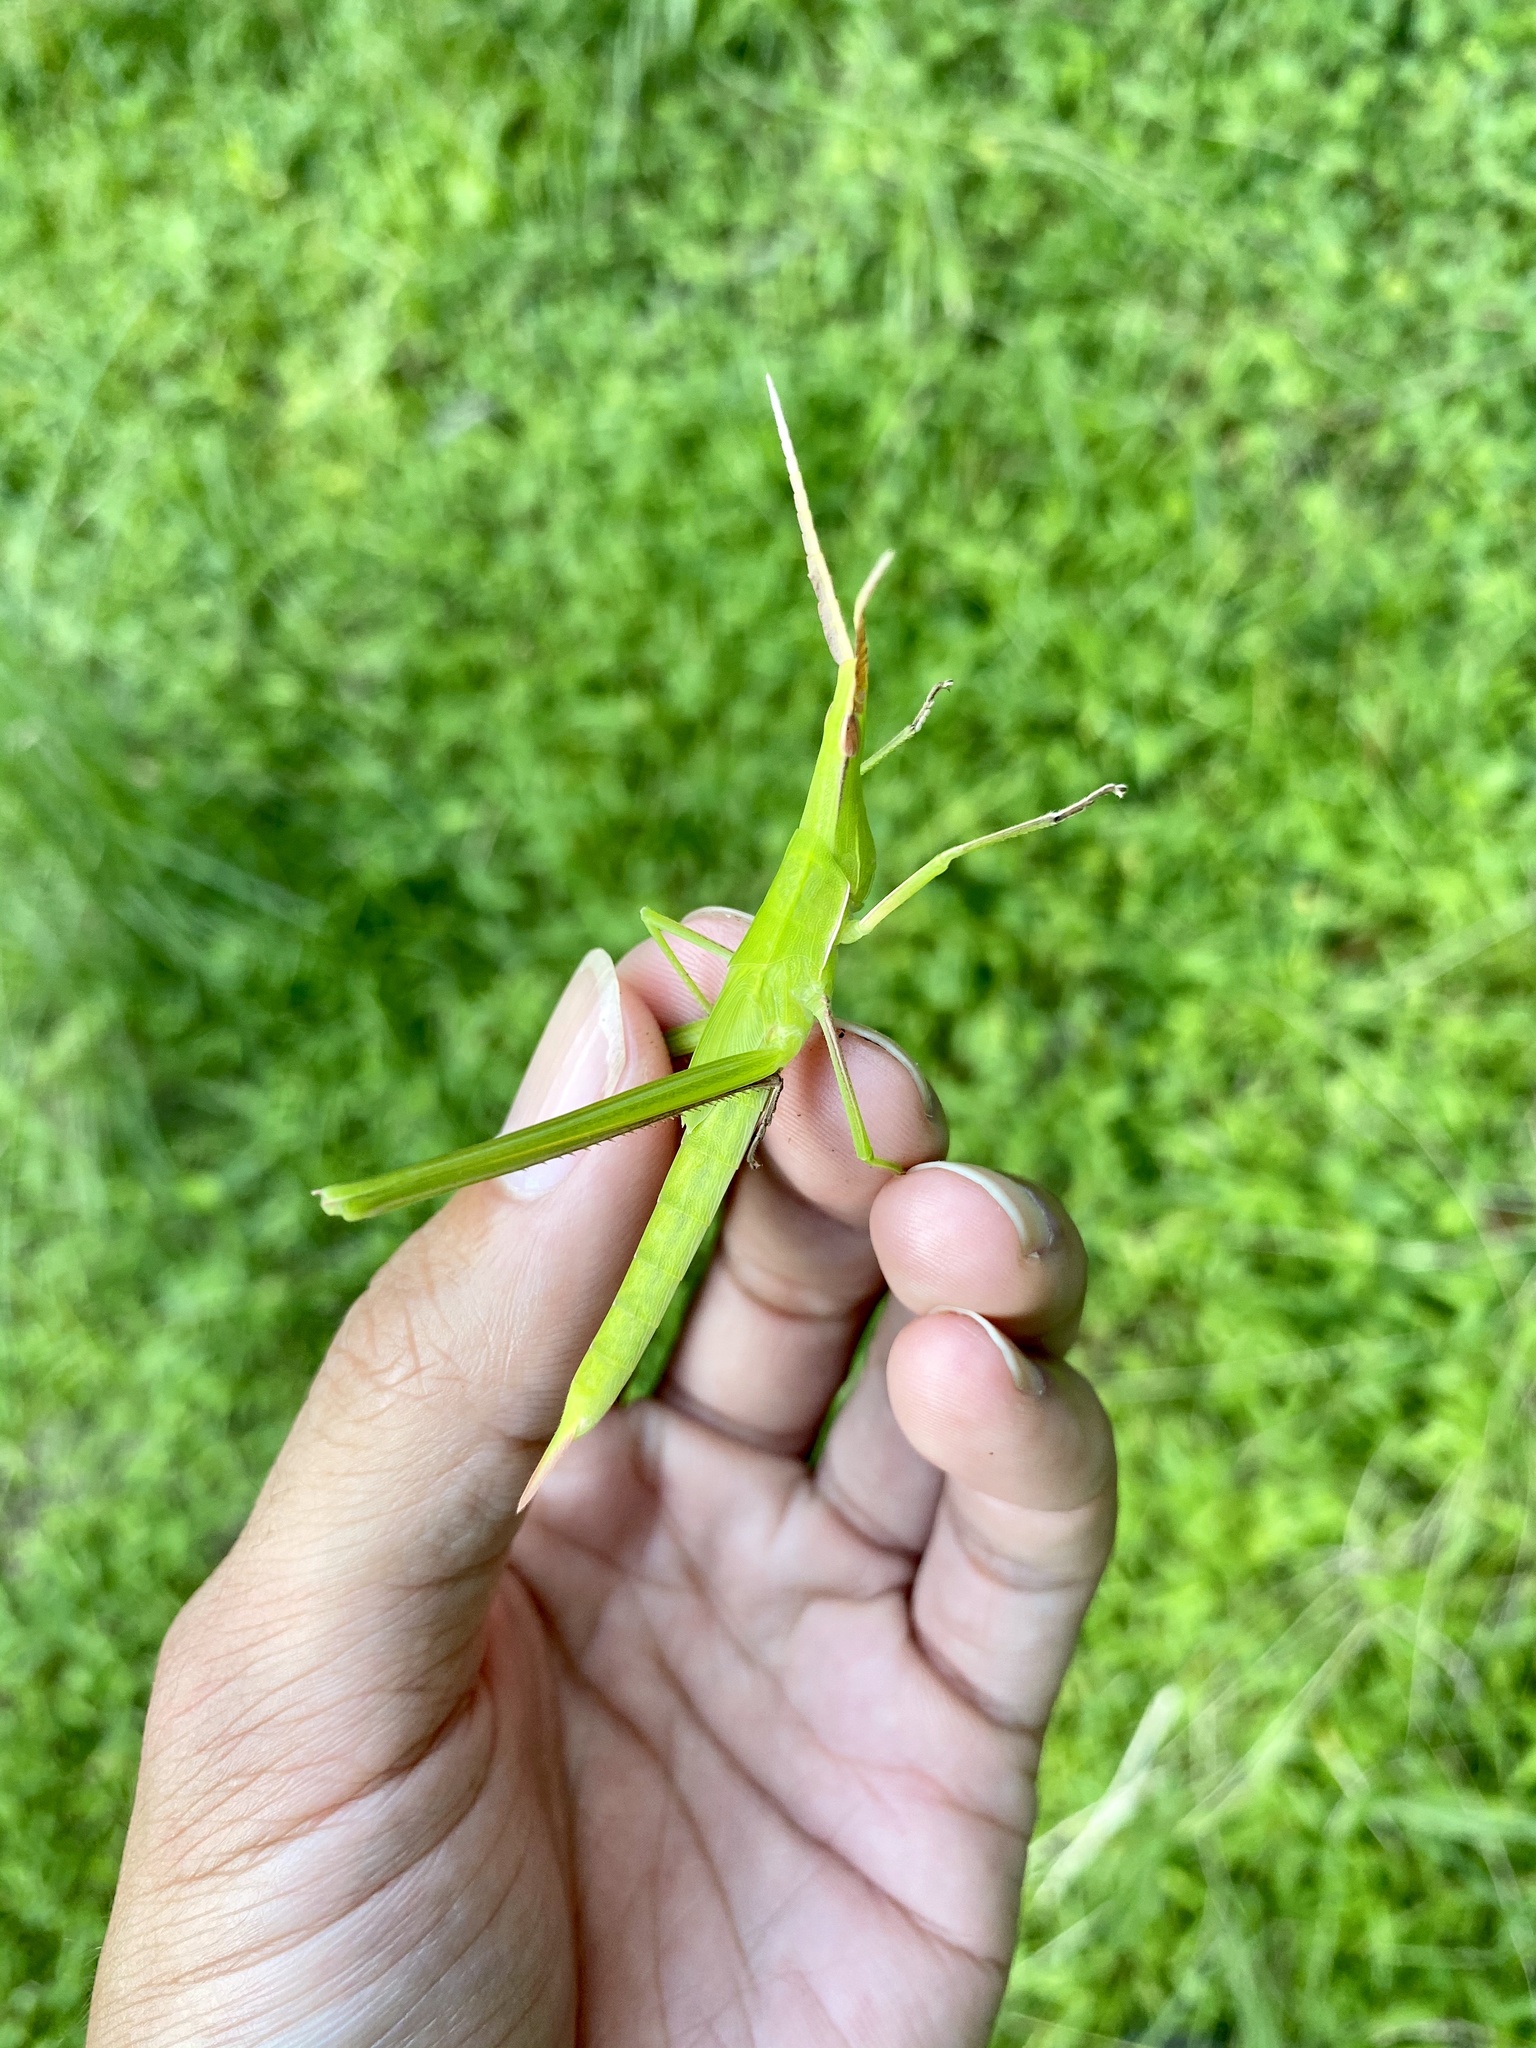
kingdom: Animalia
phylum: Arthropoda
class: Insecta
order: Orthoptera
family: Acrididae
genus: Acrida
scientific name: Acrida cinerea
